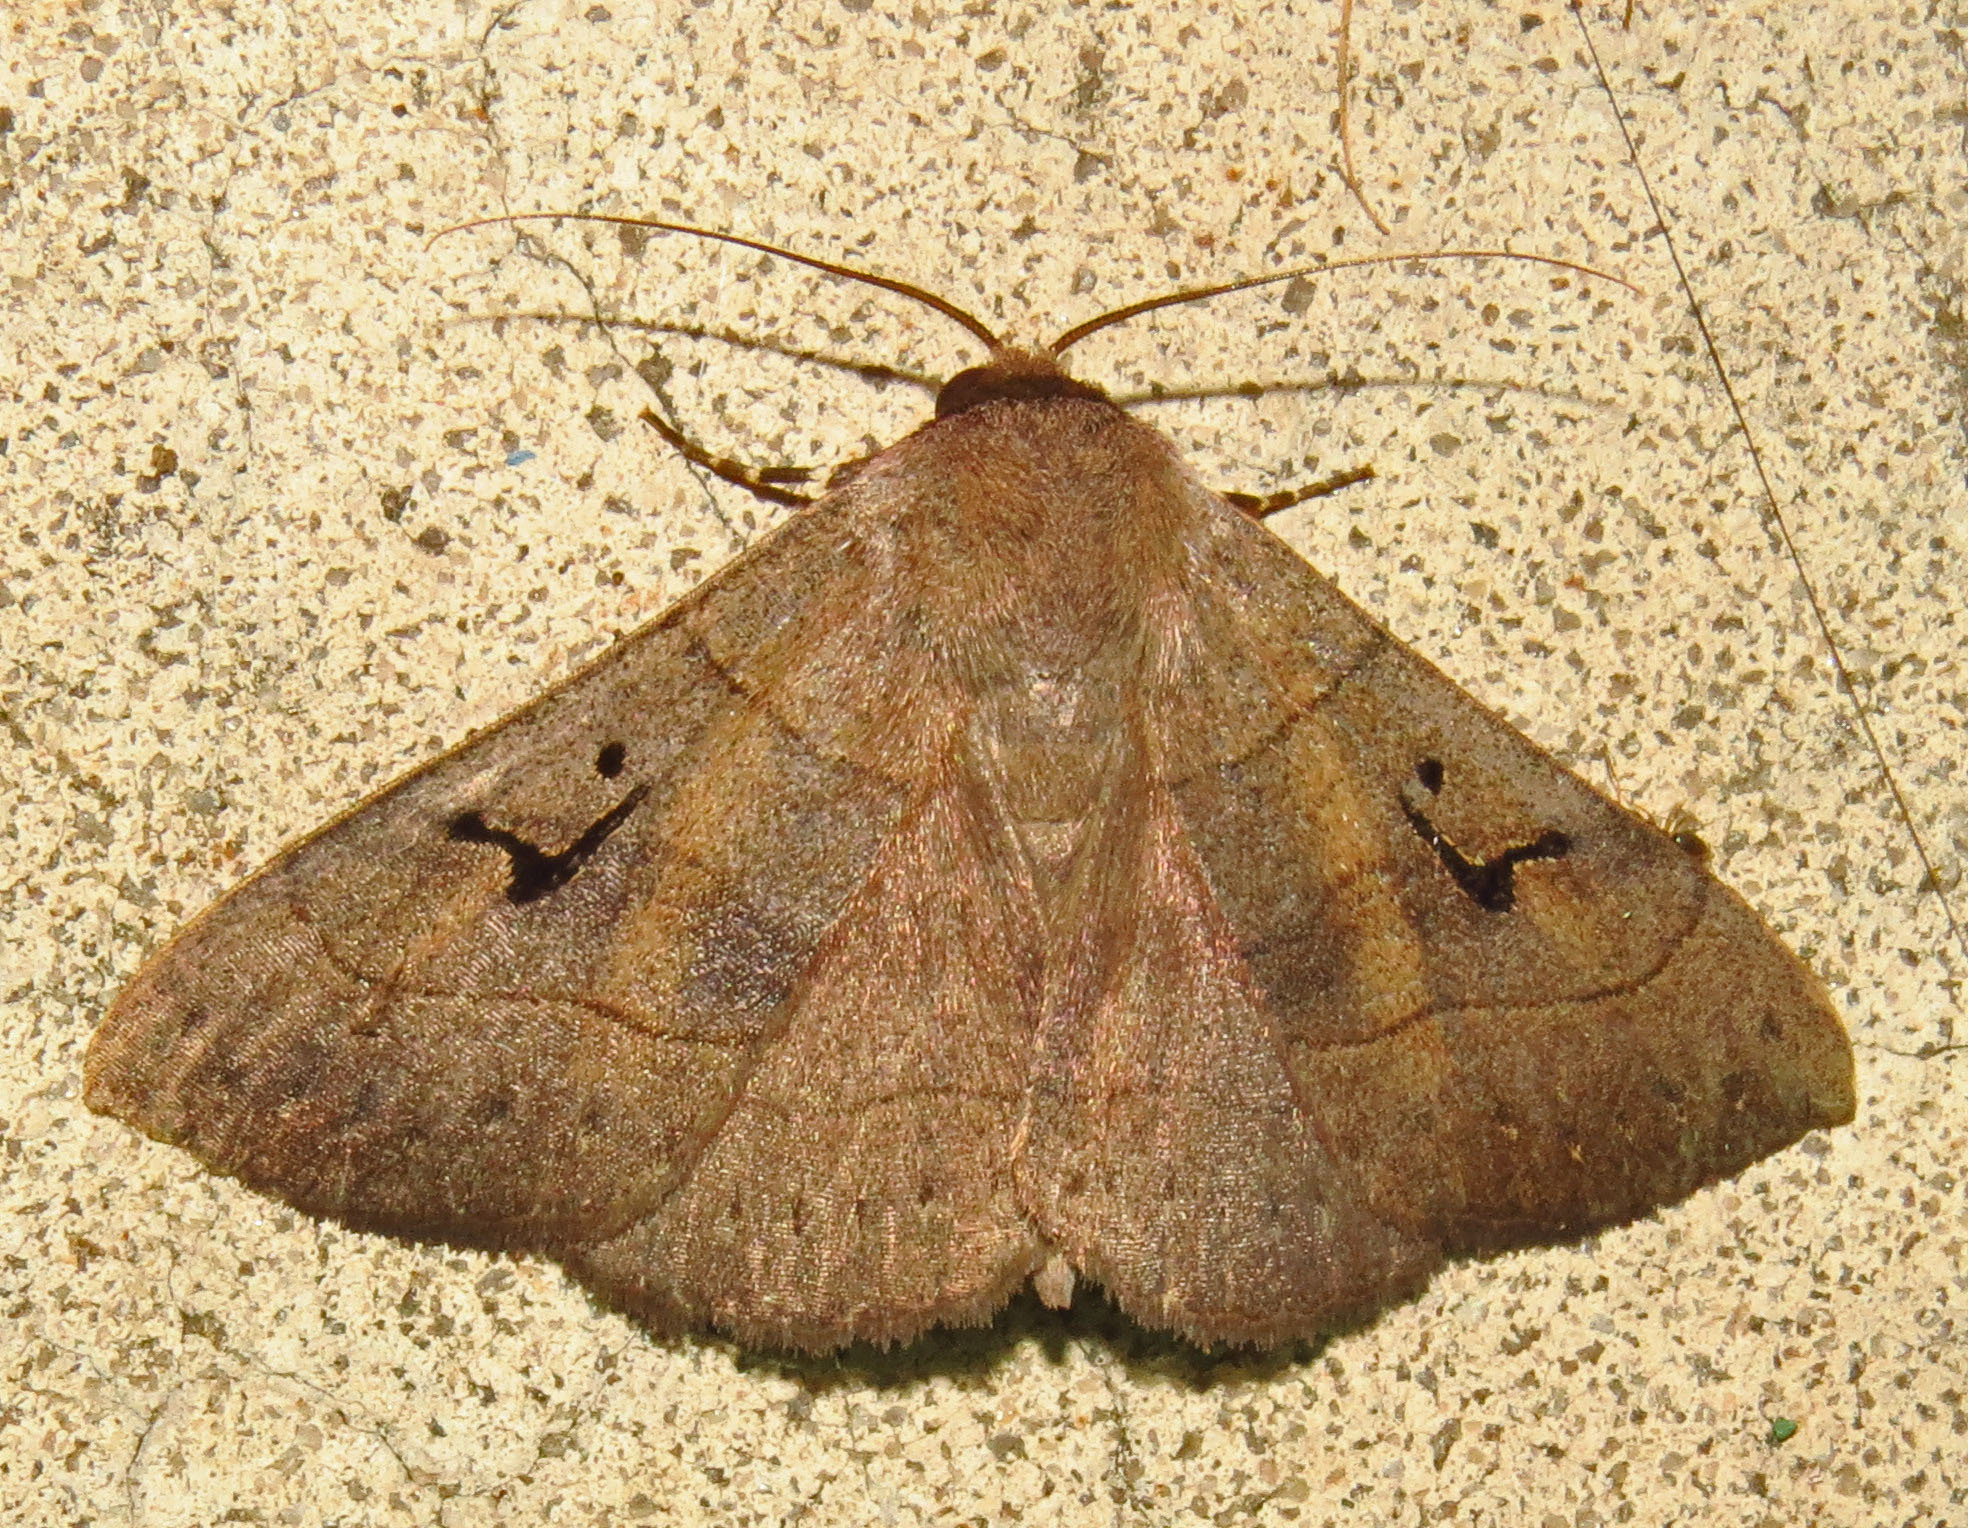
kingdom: Animalia
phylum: Arthropoda
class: Insecta
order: Lepidoptera
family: Erebidae
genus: Panopoda
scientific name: Panopoda carneicosta
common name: Brown panopoda moth
